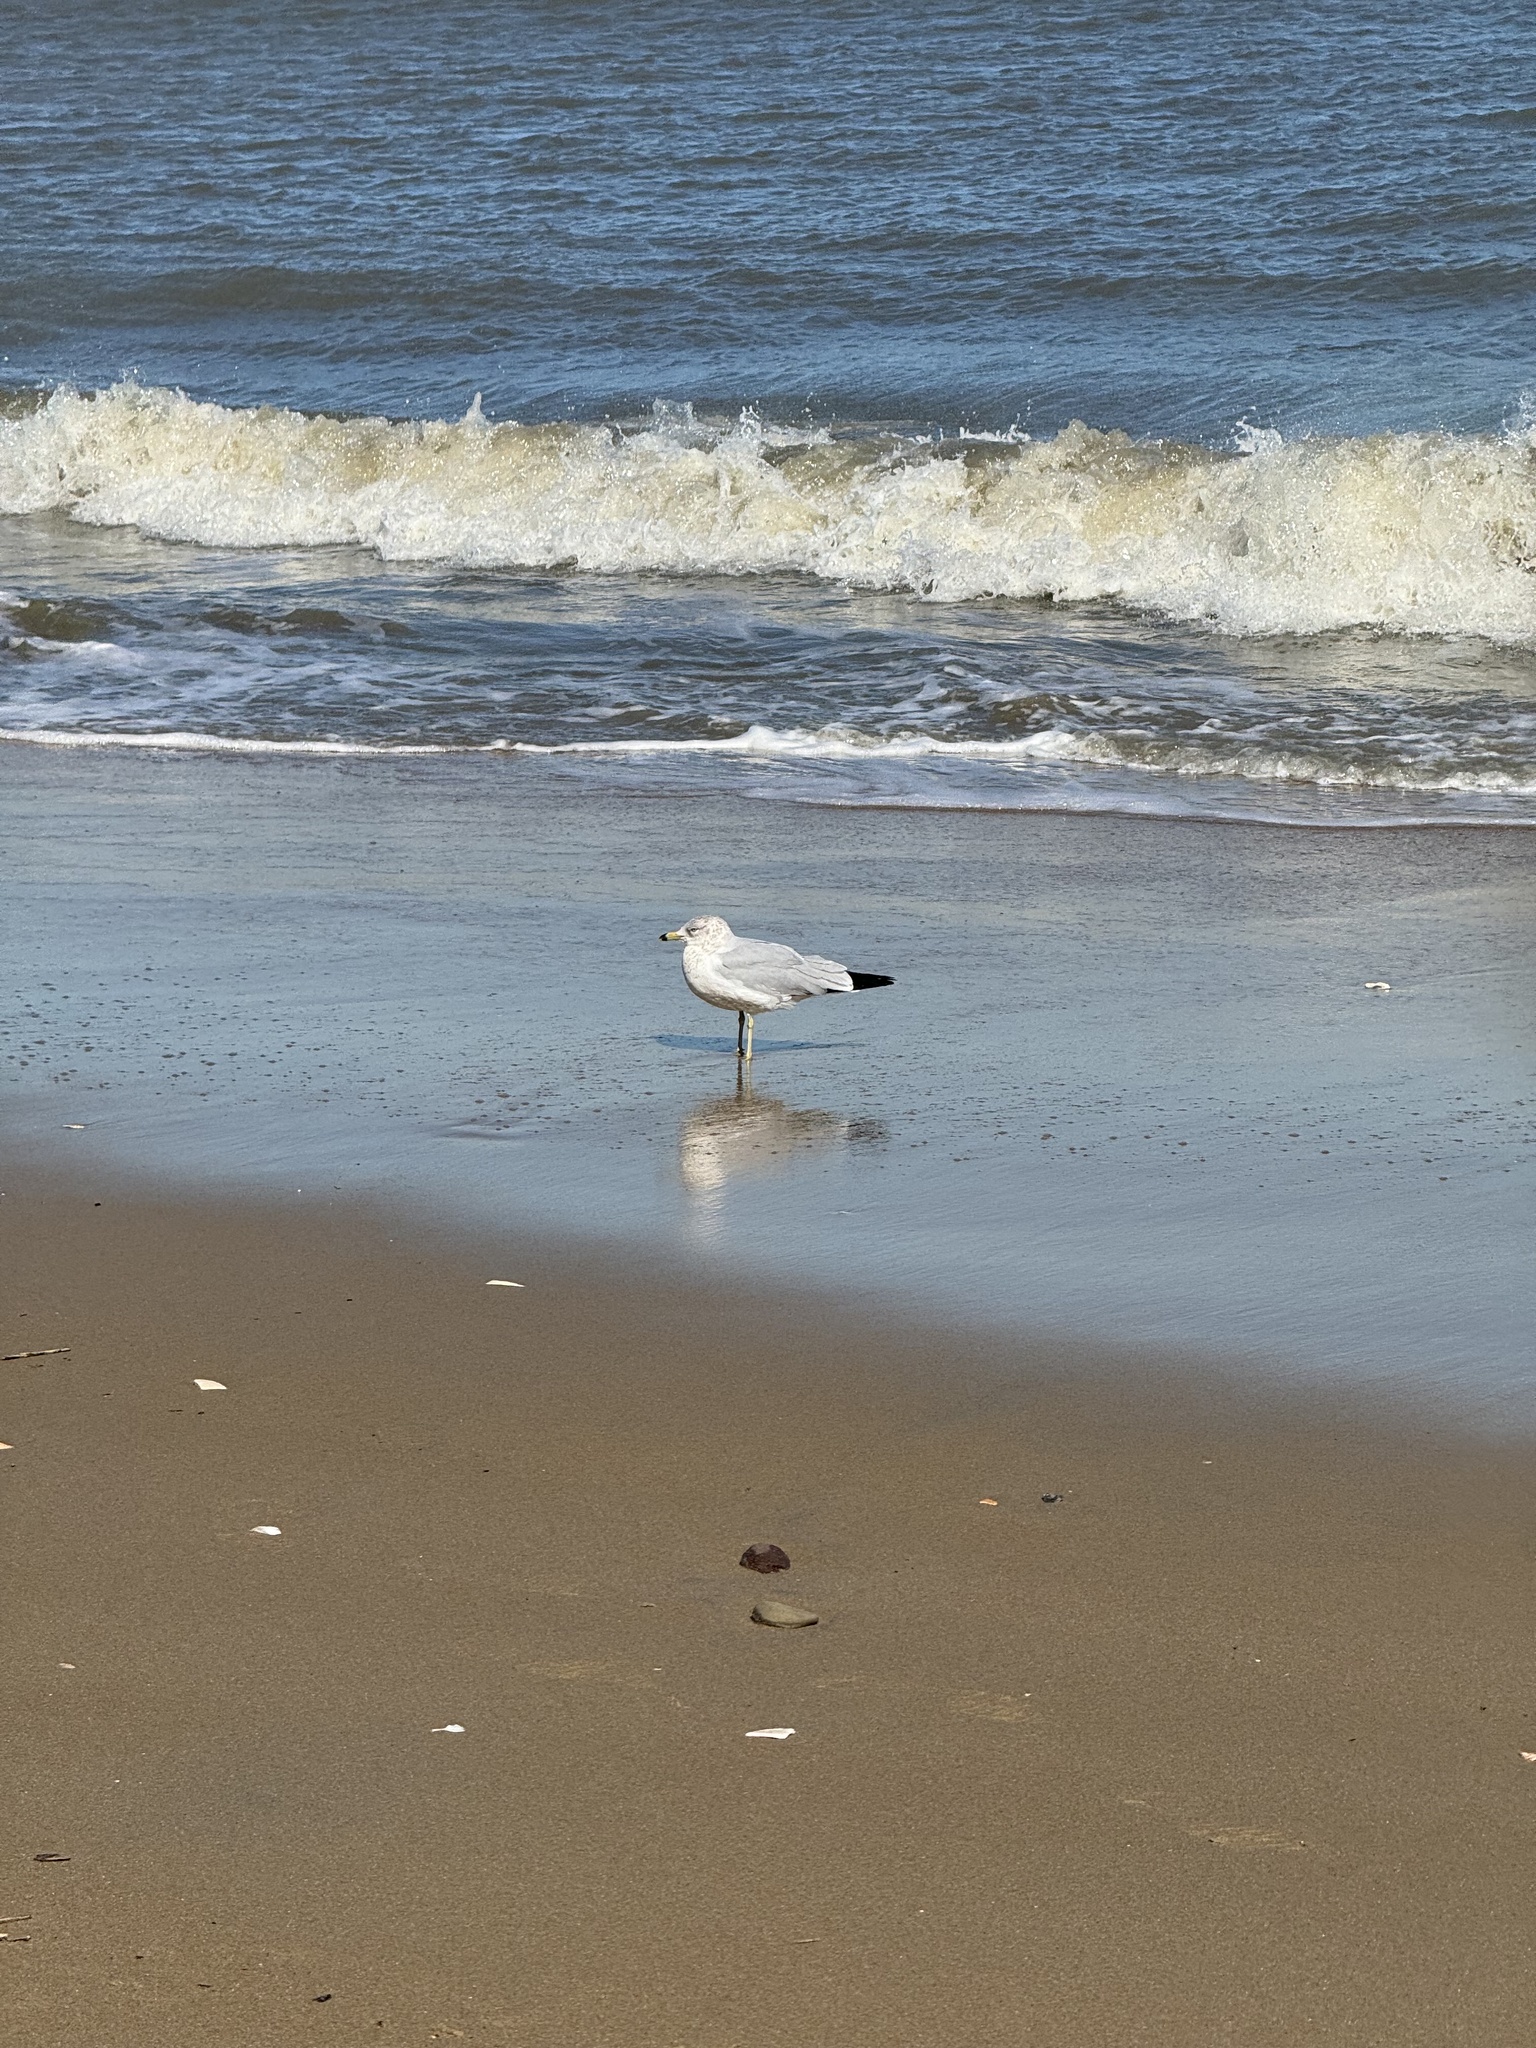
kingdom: Animalia
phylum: Chordata
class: Aves
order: Charadriiformes
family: Laridae
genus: Larus
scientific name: Larus delawarensis
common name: Ring-billed gull
